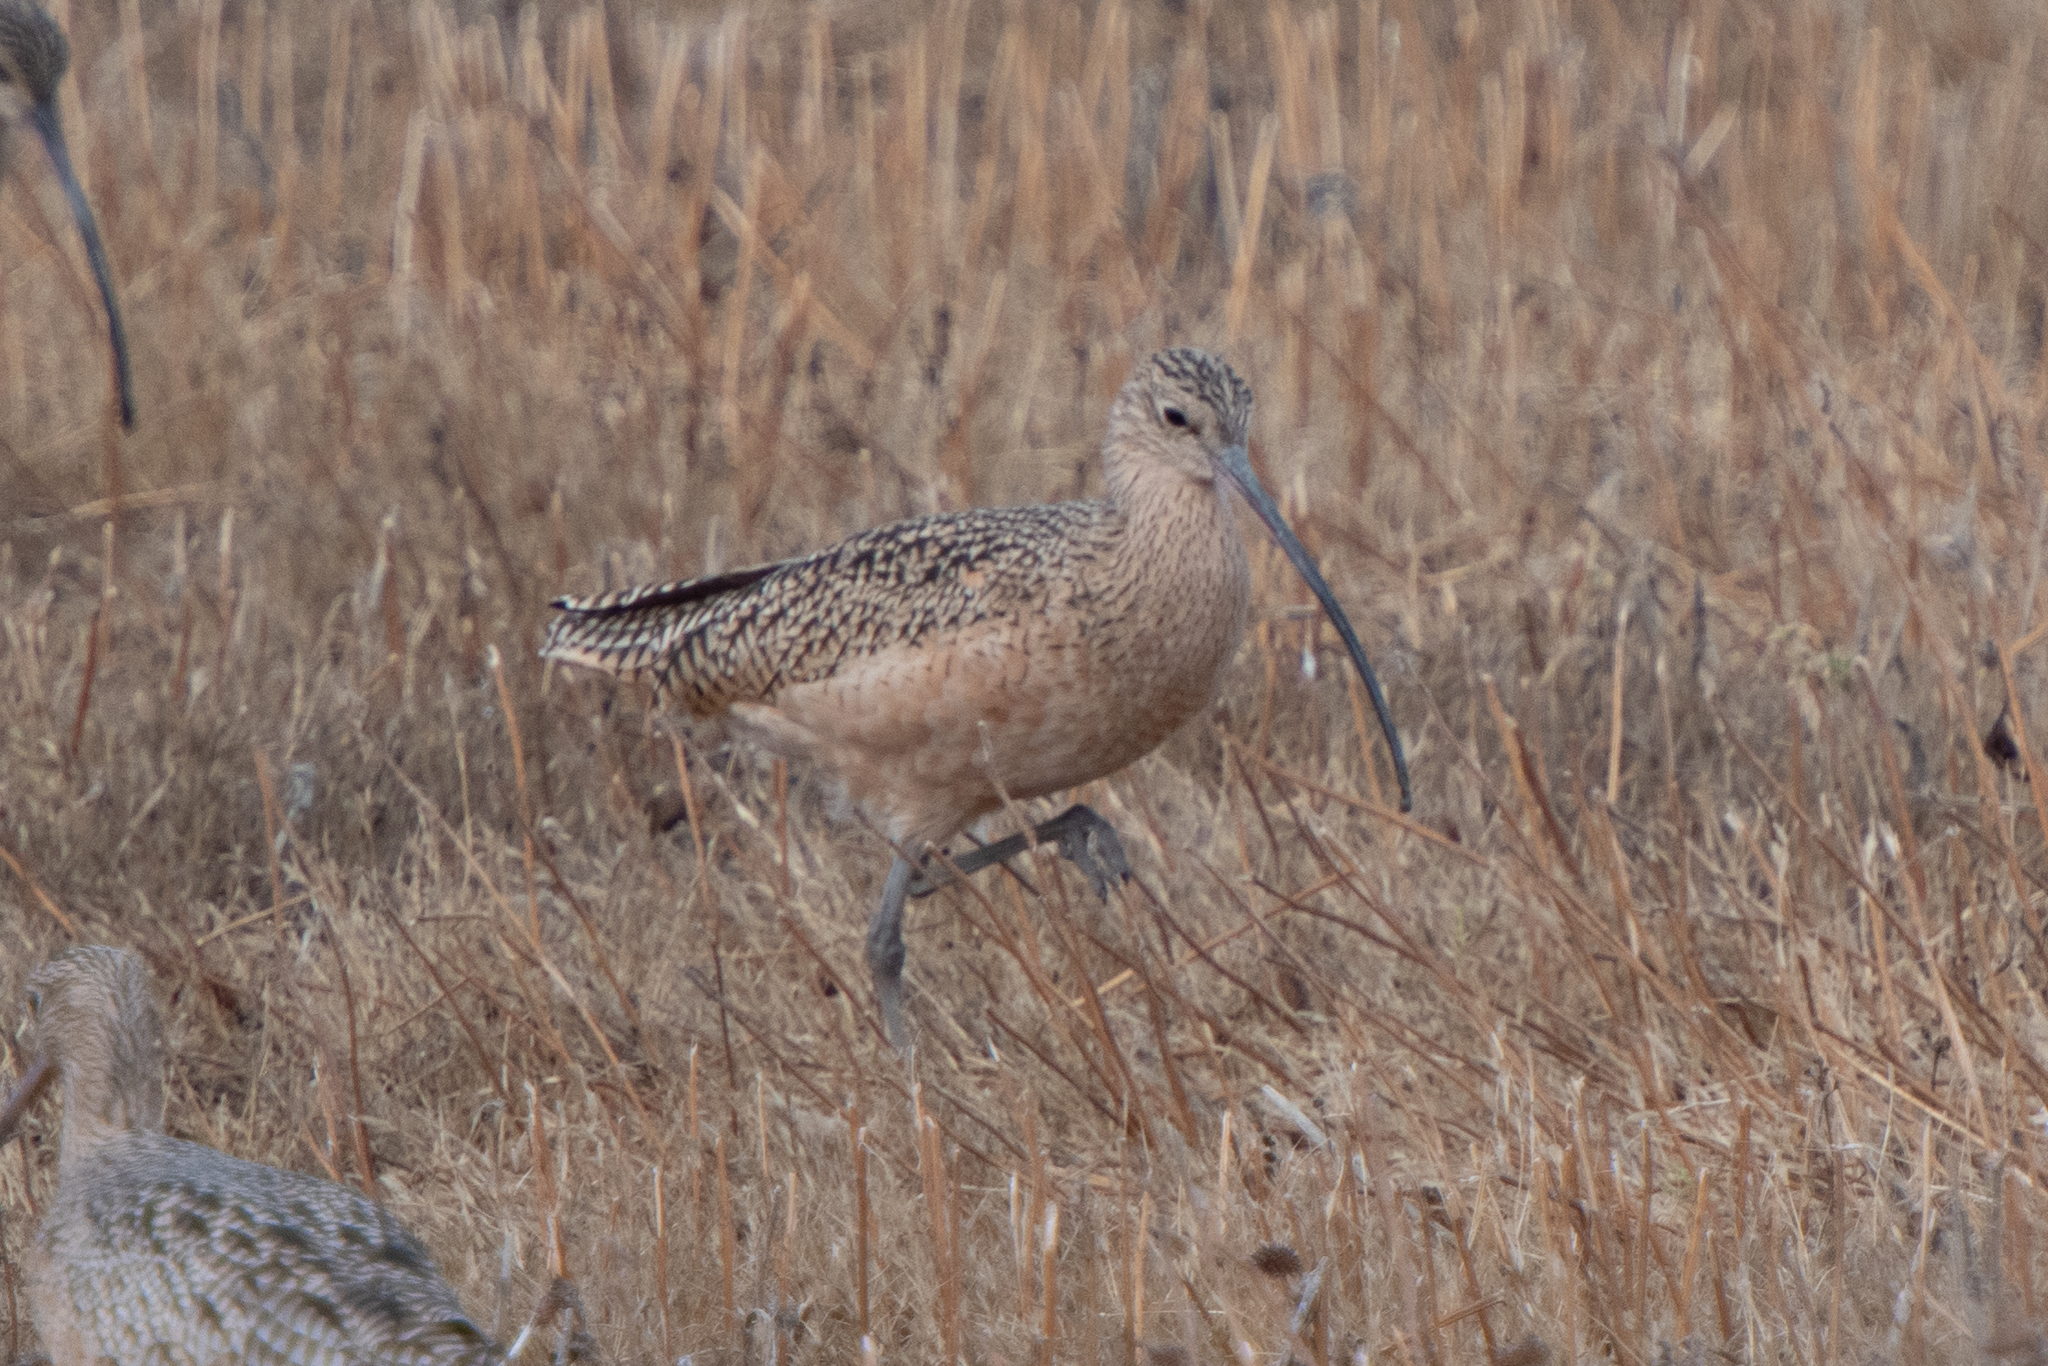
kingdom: Animalia
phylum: Chordata
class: Aves
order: Charadriiformes
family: Scolopacidae
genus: Numenius
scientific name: Numenius americanus
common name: Long-billed curlew
